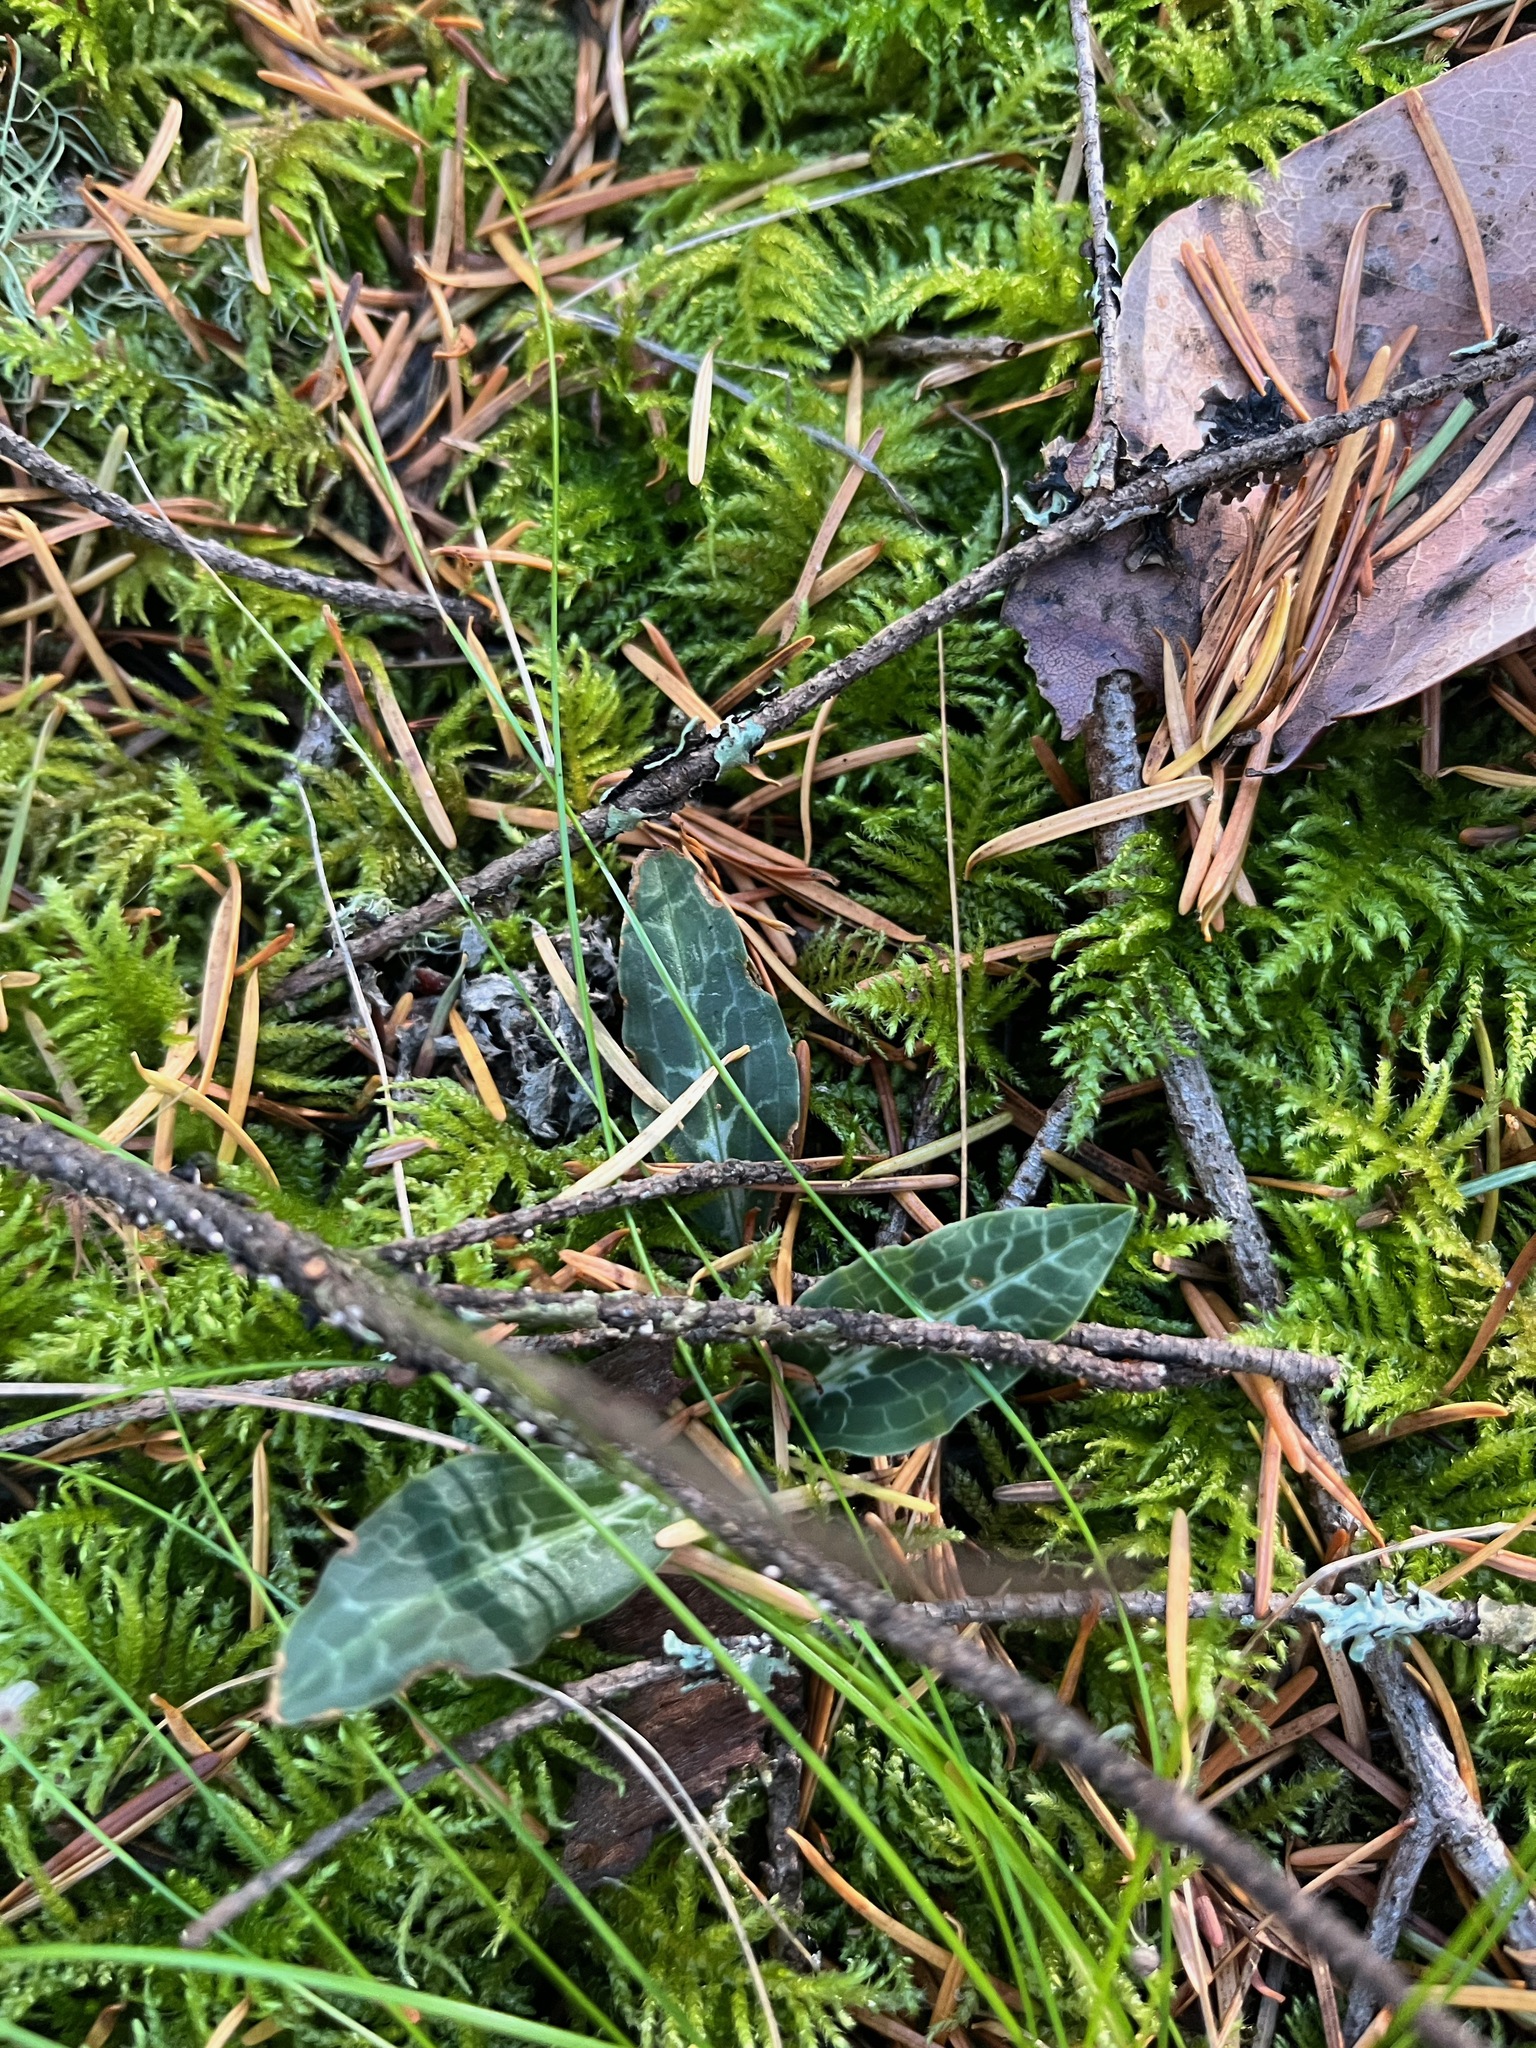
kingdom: Plantae
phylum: Tracheophyta
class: Liliopsida
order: Asparagales
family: Orchidaceae
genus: Goodyera
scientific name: Goodyera oblongifolia
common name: Giant rattlesnake-plantain
